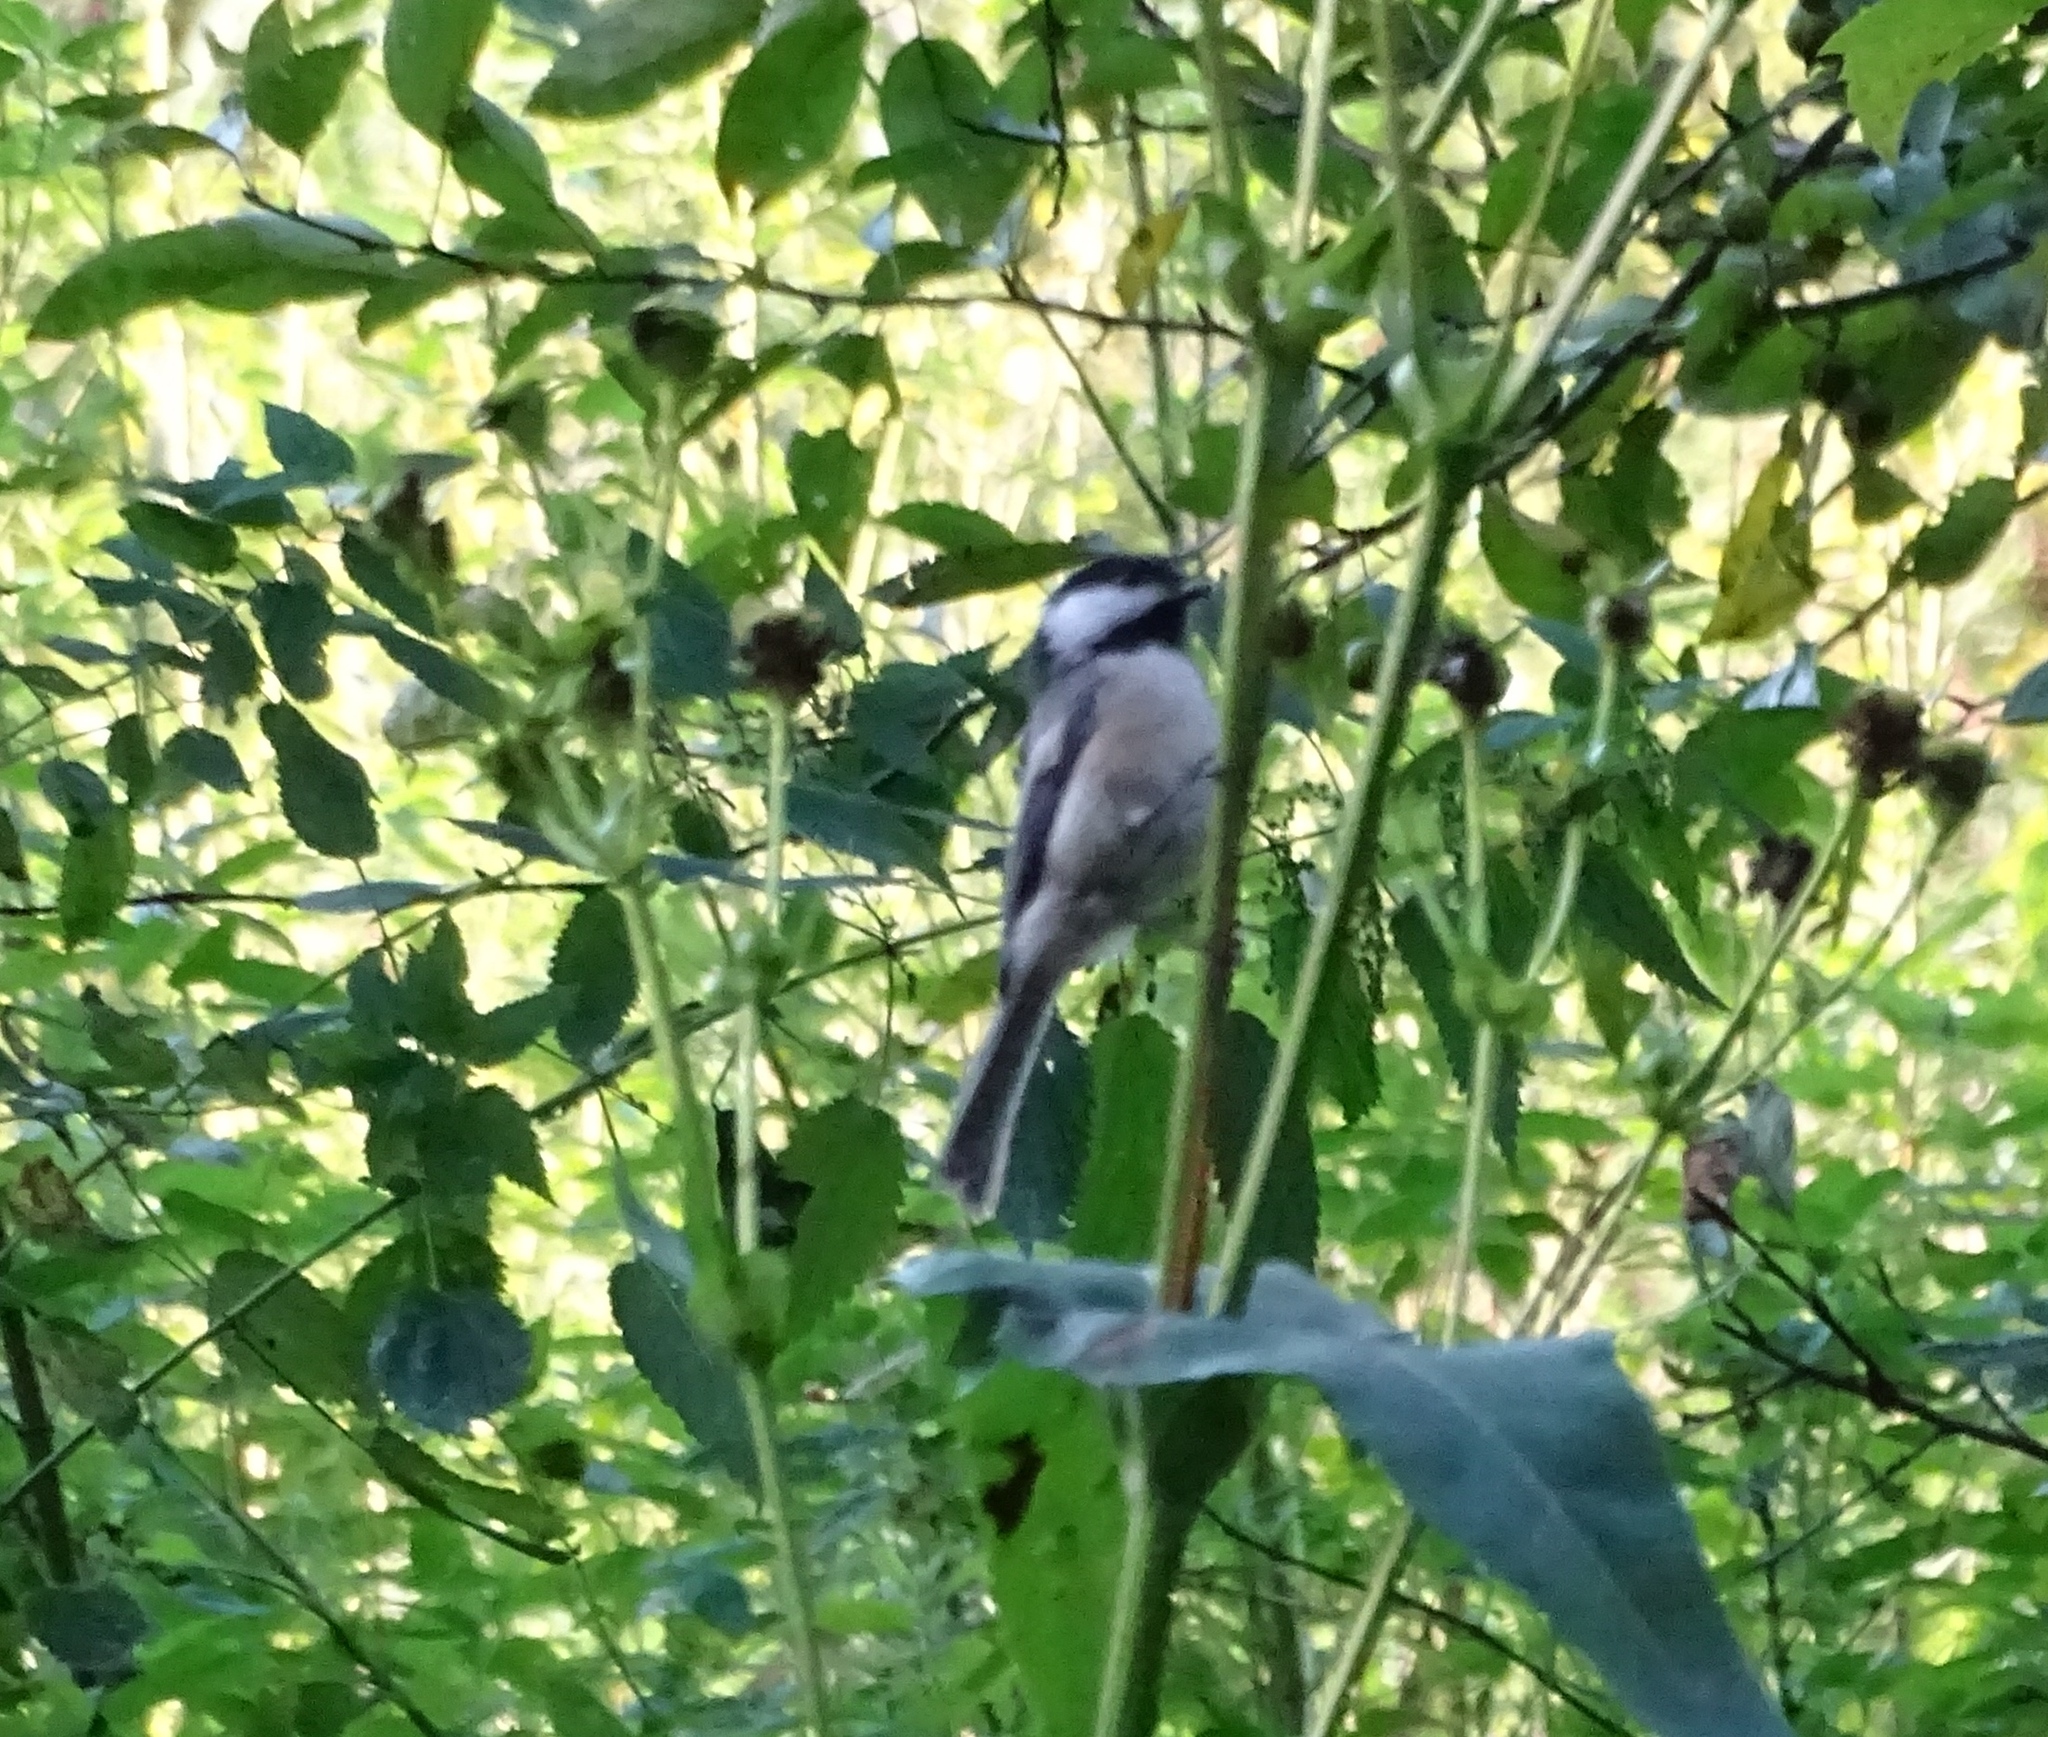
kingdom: Animalia
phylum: Chordata
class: Aves
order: Passeriformes
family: Paridae
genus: Poecile
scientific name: Poecile atricapillus
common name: Black-capped chickadee
